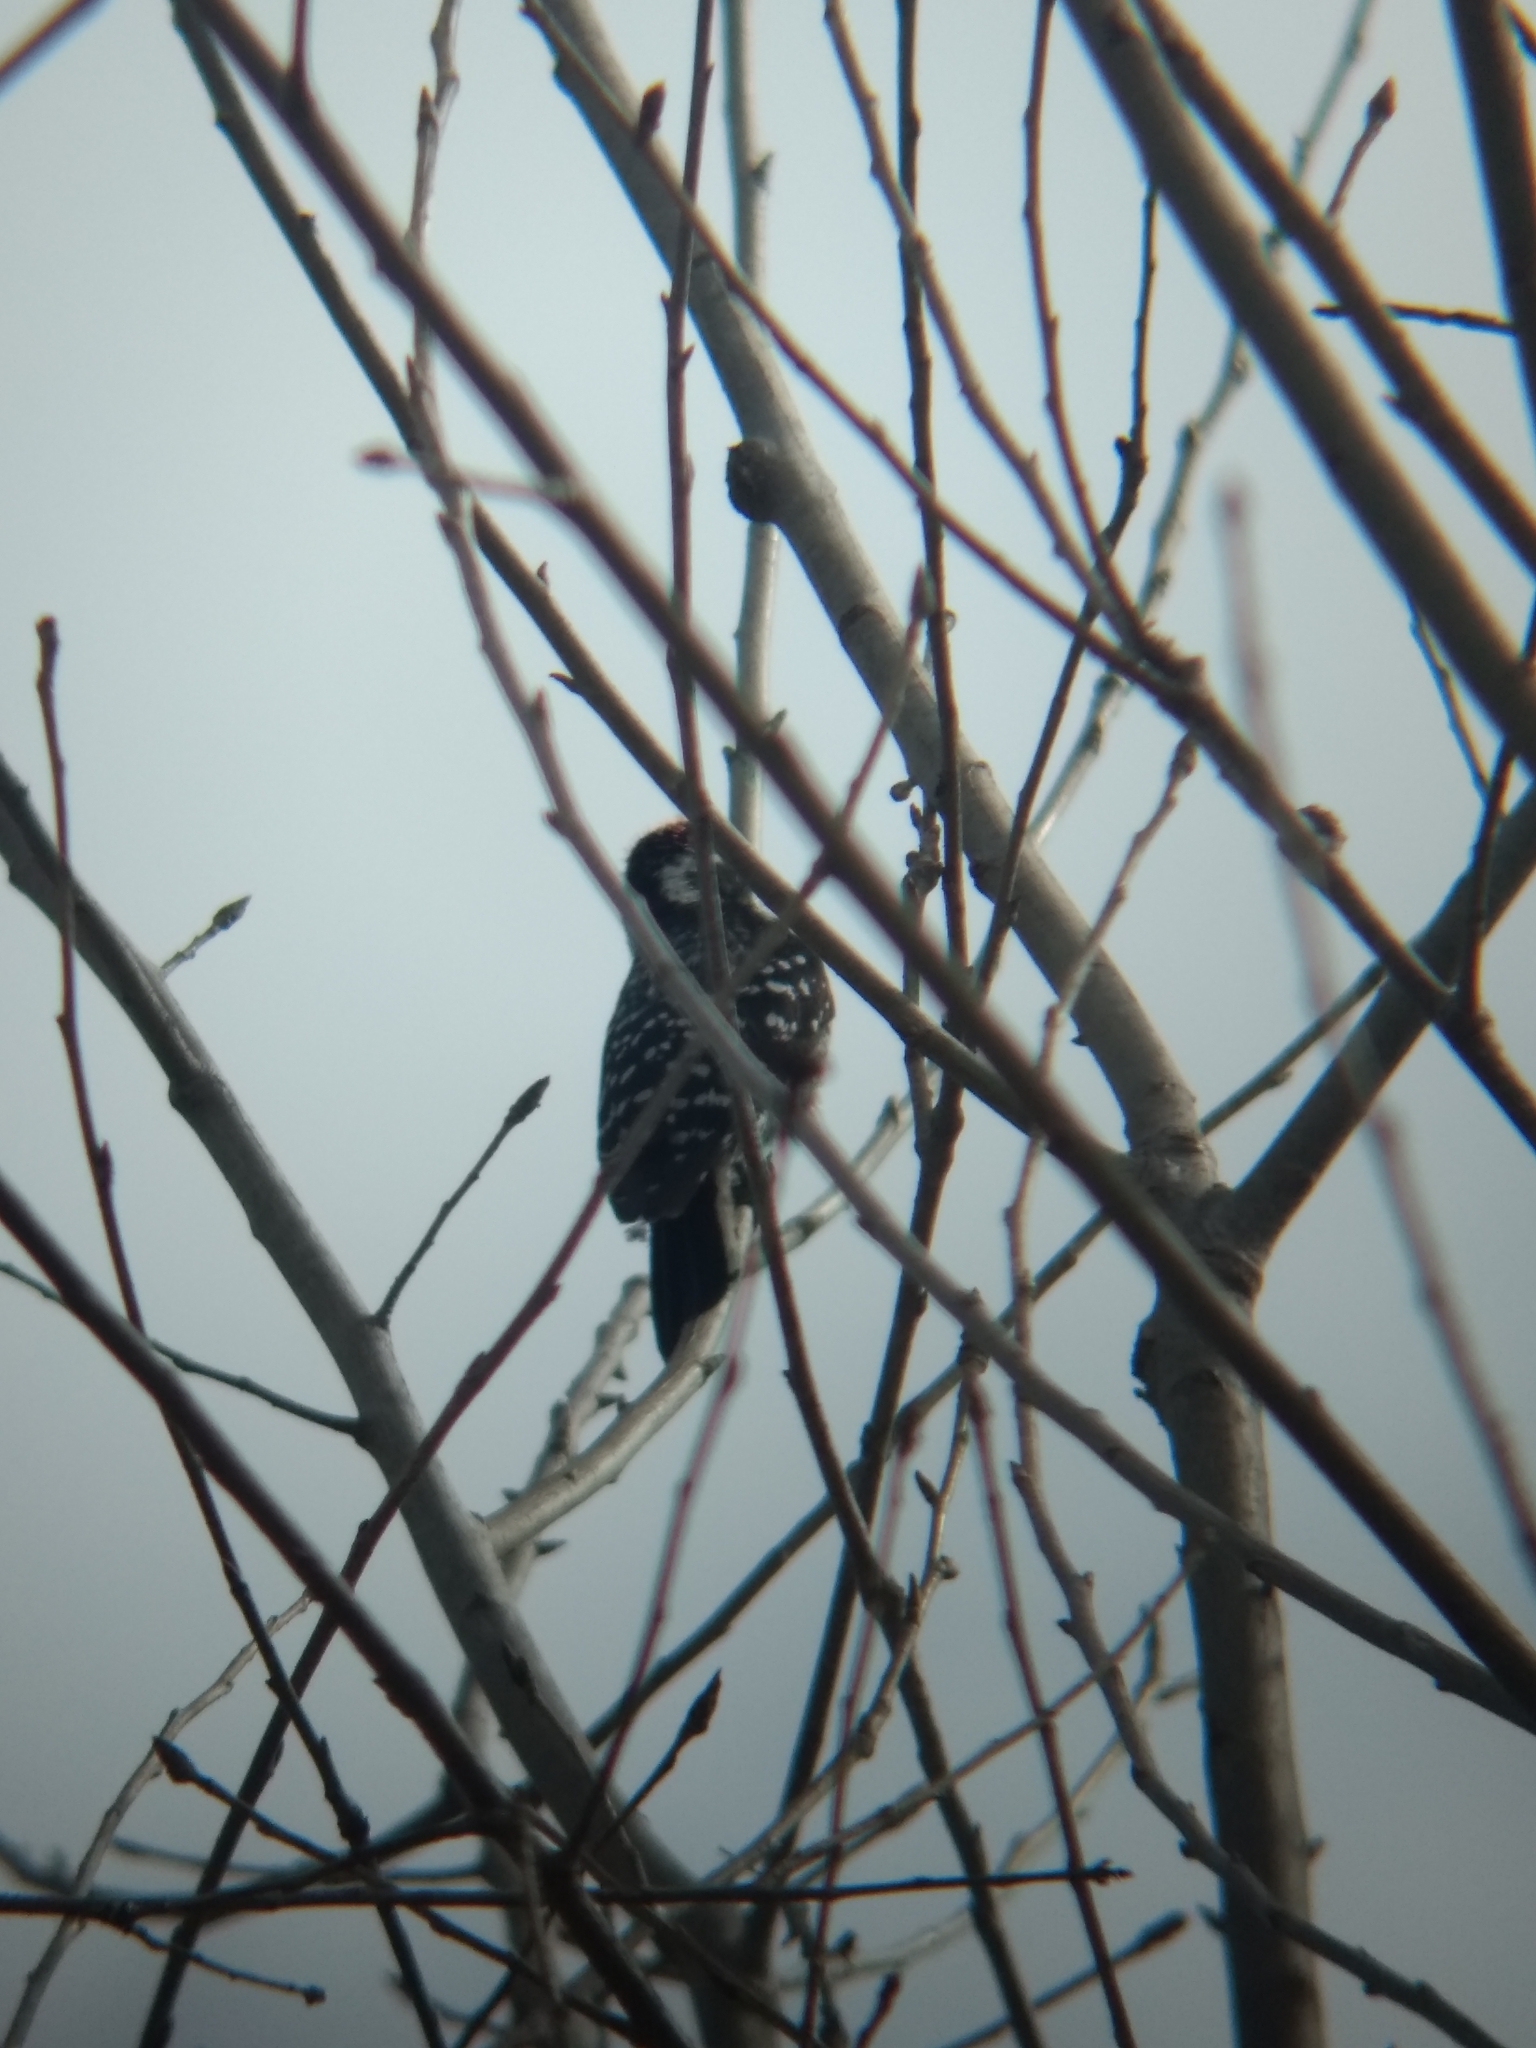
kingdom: Animalia
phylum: Chordata
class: Aves
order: Piciformes
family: Picidae
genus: Dryobates
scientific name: Dryobates nuttallii
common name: Nuttall's woodpecker
